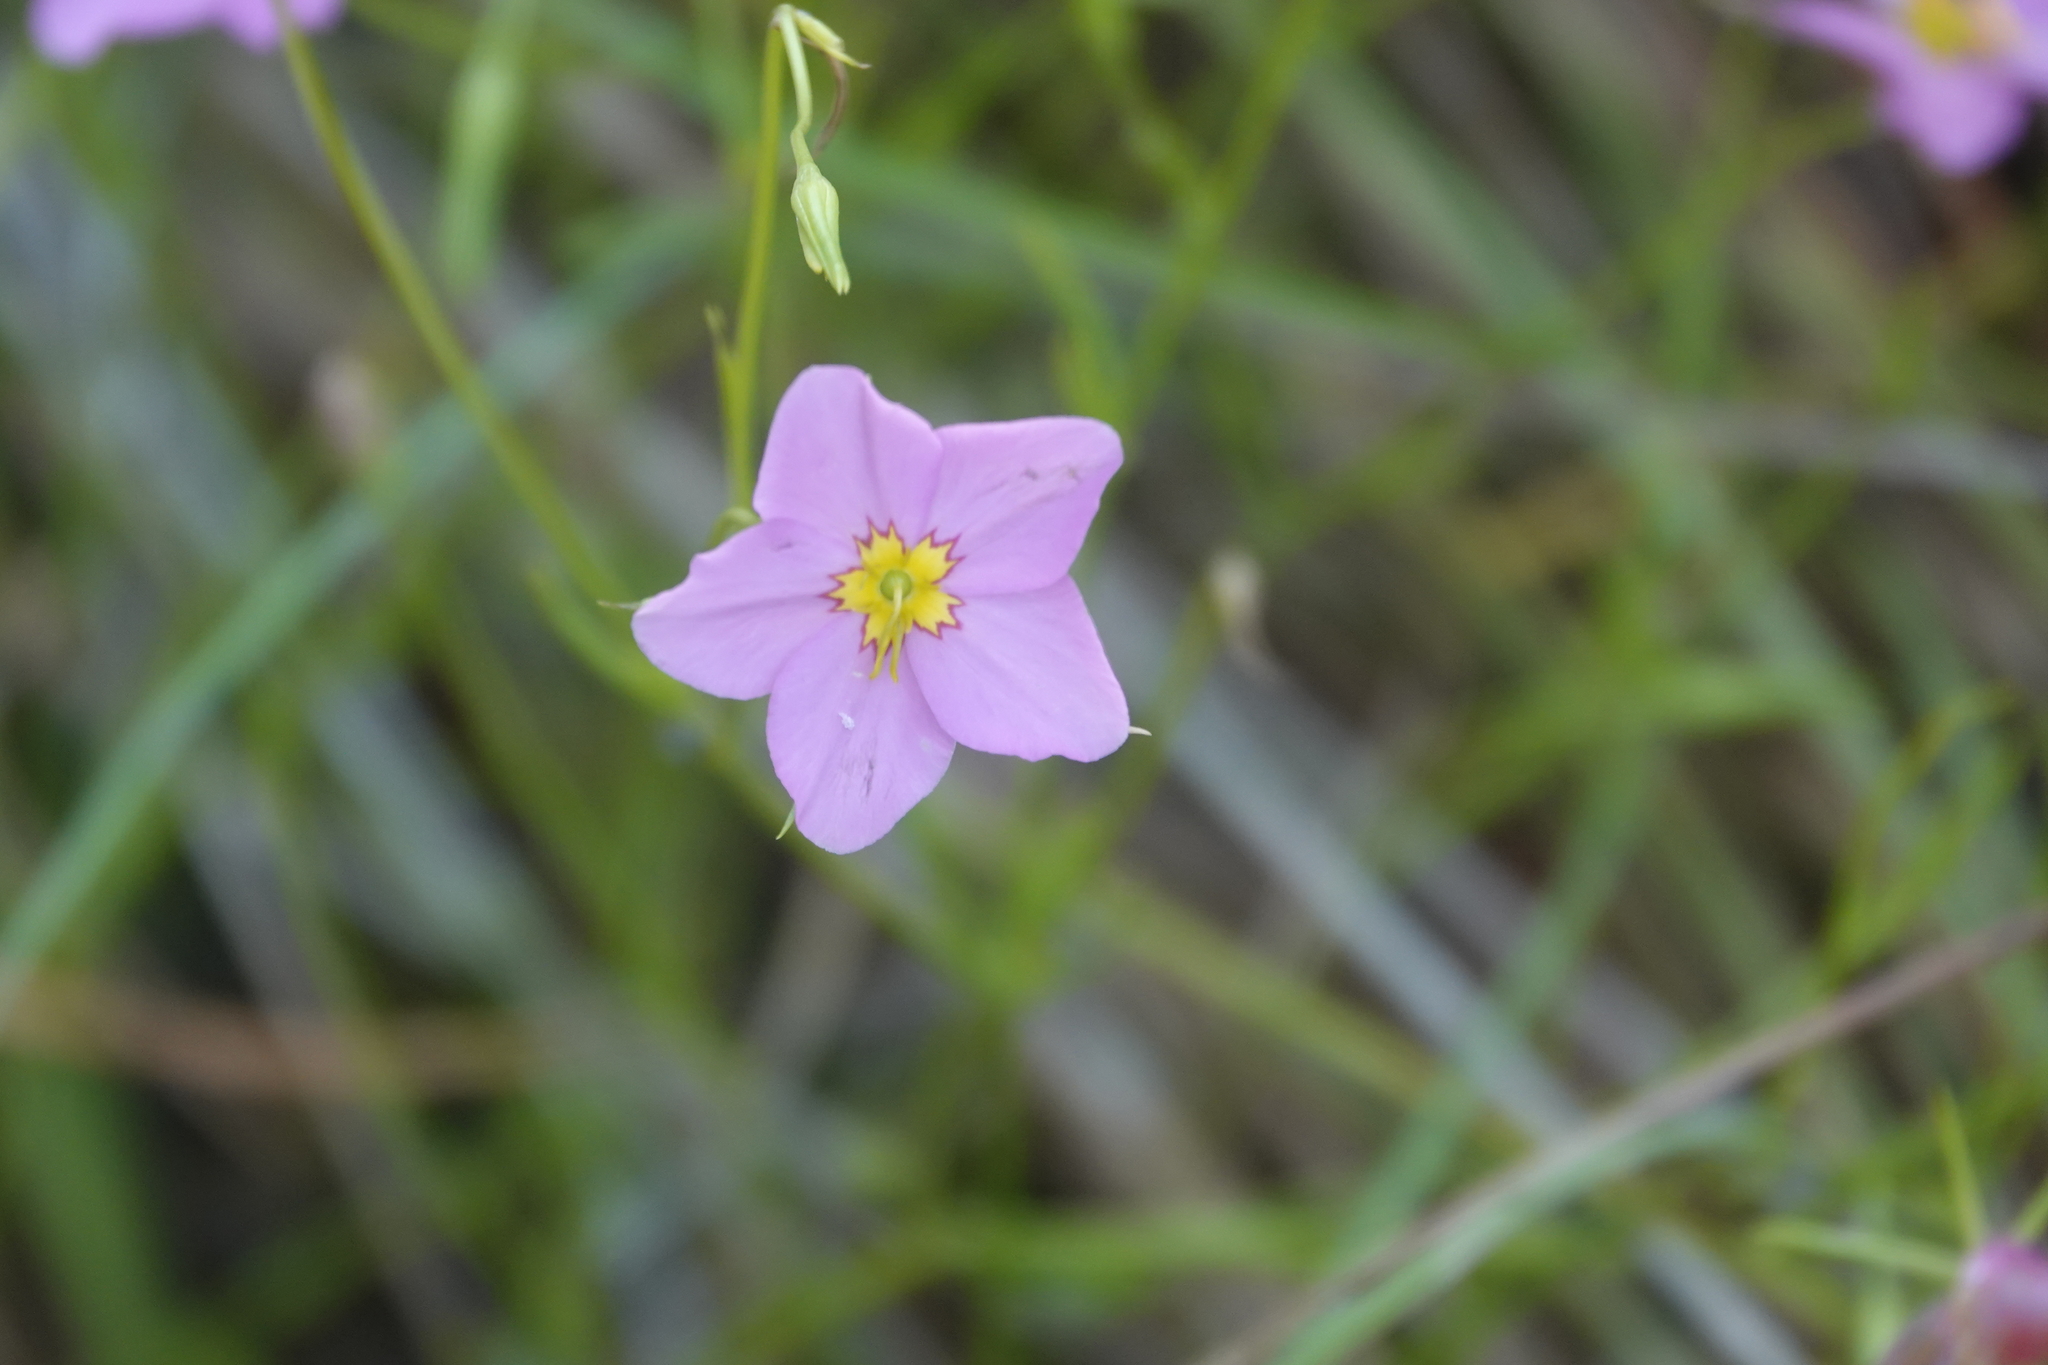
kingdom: Plantae
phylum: Tracheophyta
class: Magnoliopsida
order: Gentianales
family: Gentianaceae
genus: Sabatia
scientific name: Sabatia stellaris
